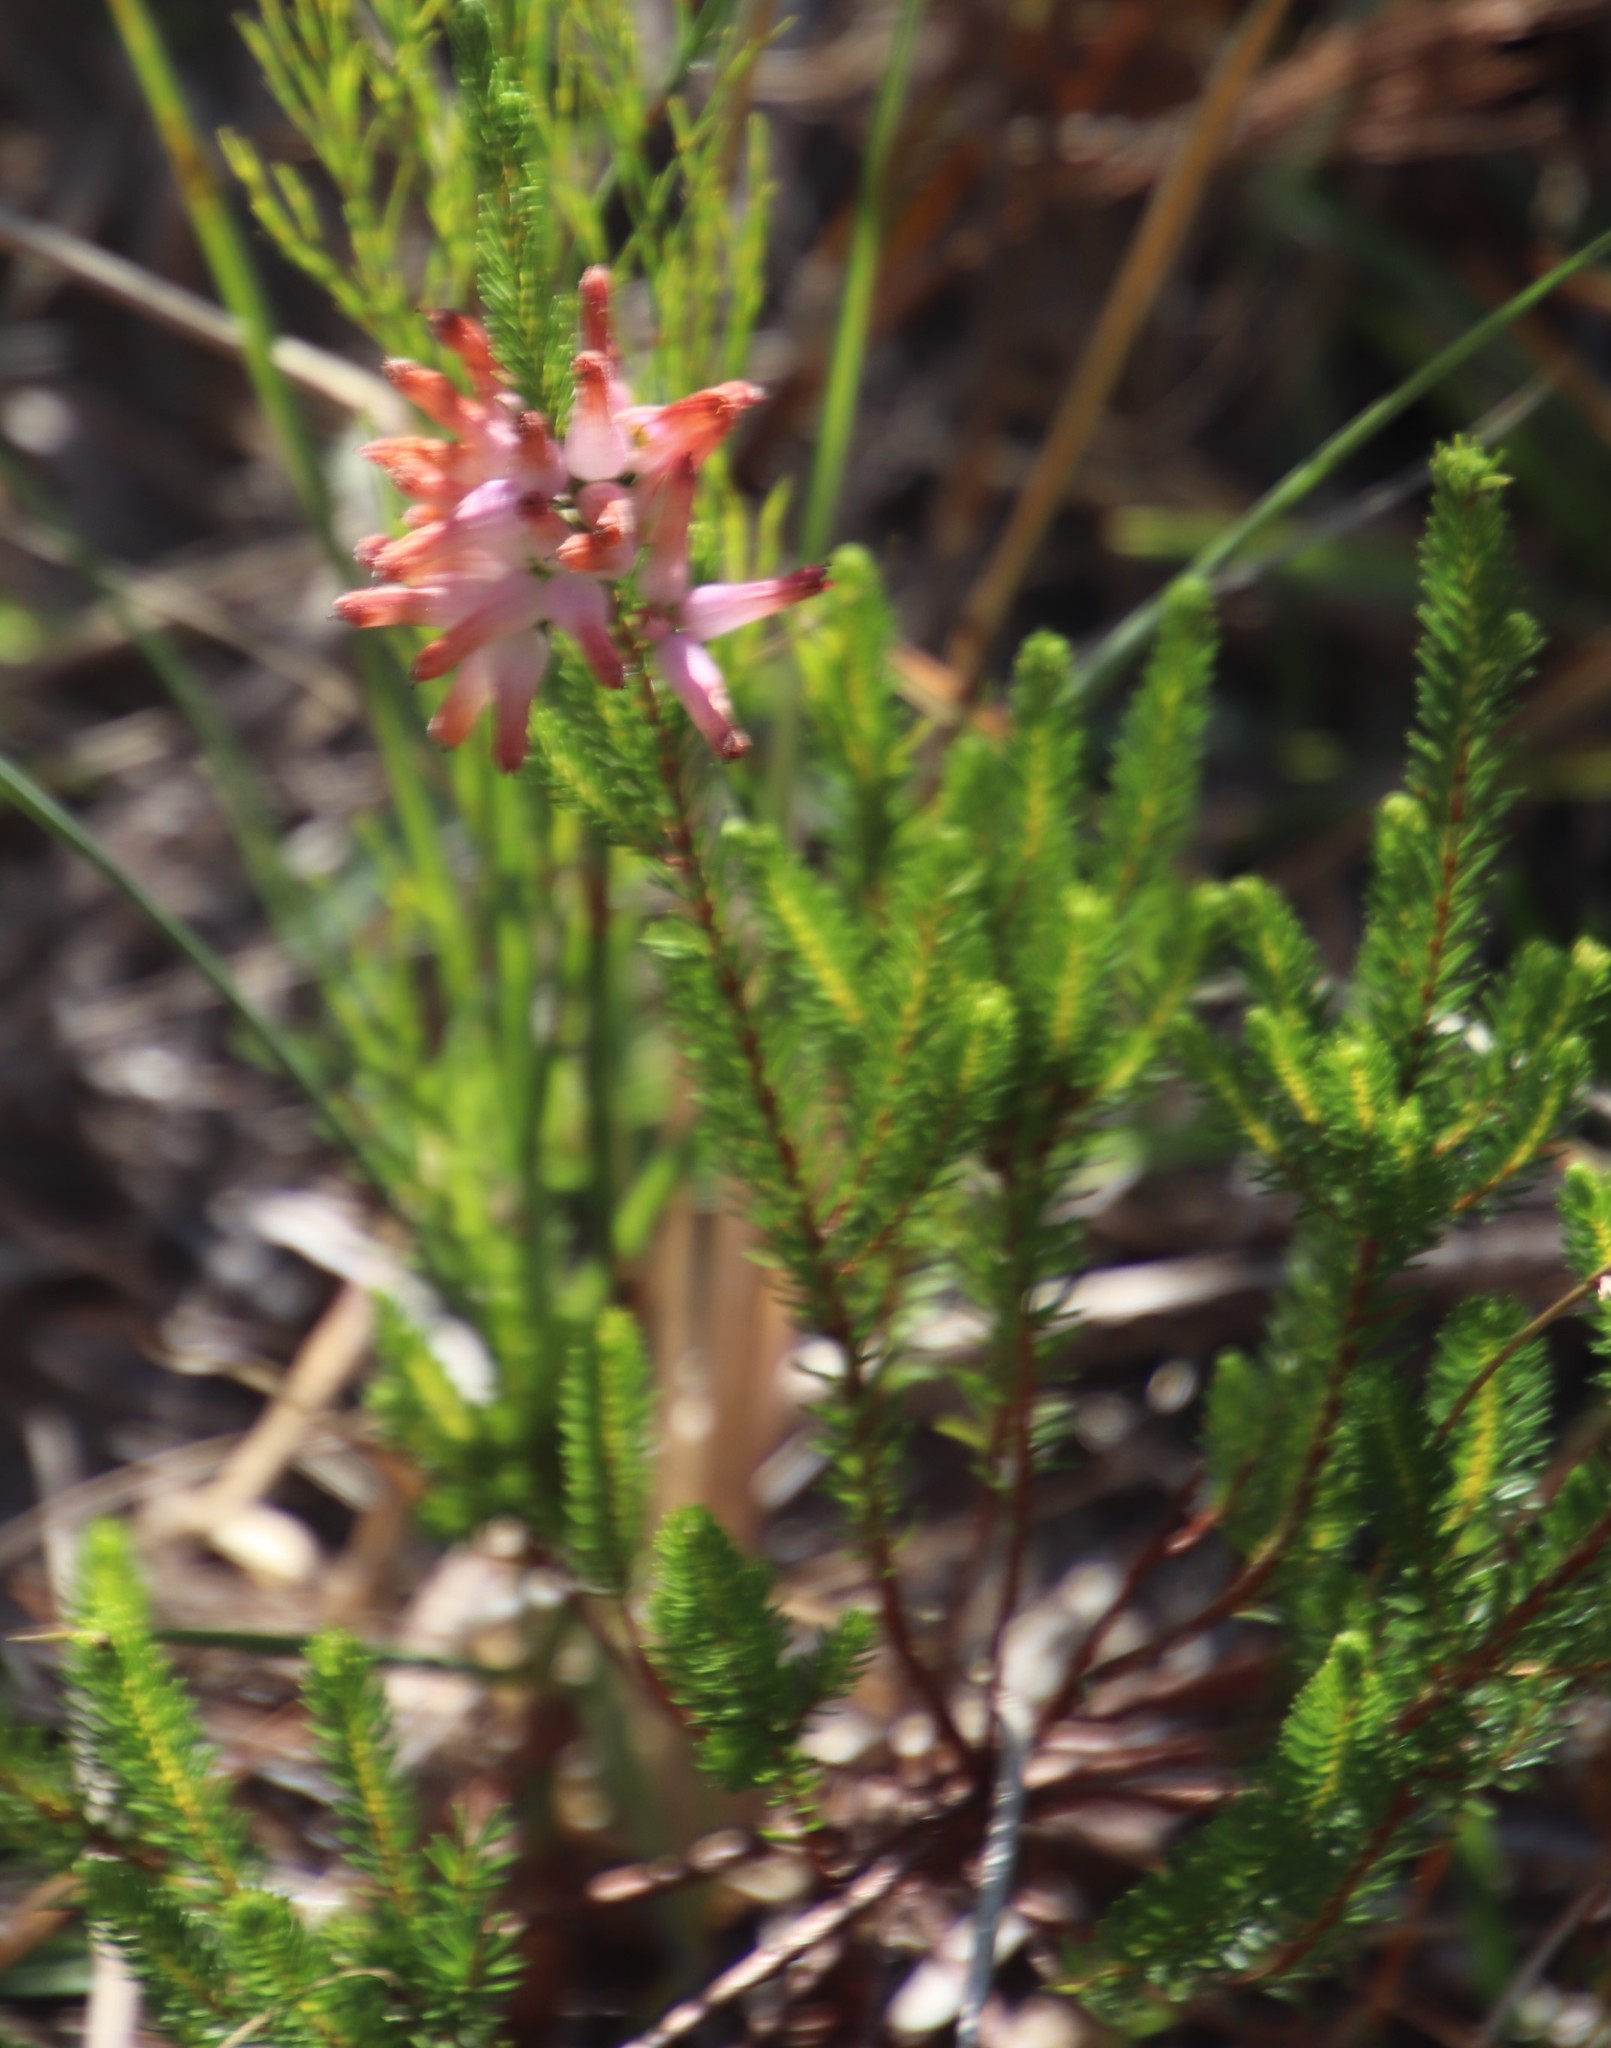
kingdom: Plantae
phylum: Tracheophyta
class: Magnoliopsida
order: Ericales
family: Ericaceae
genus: Erica
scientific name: Erica verticillata
